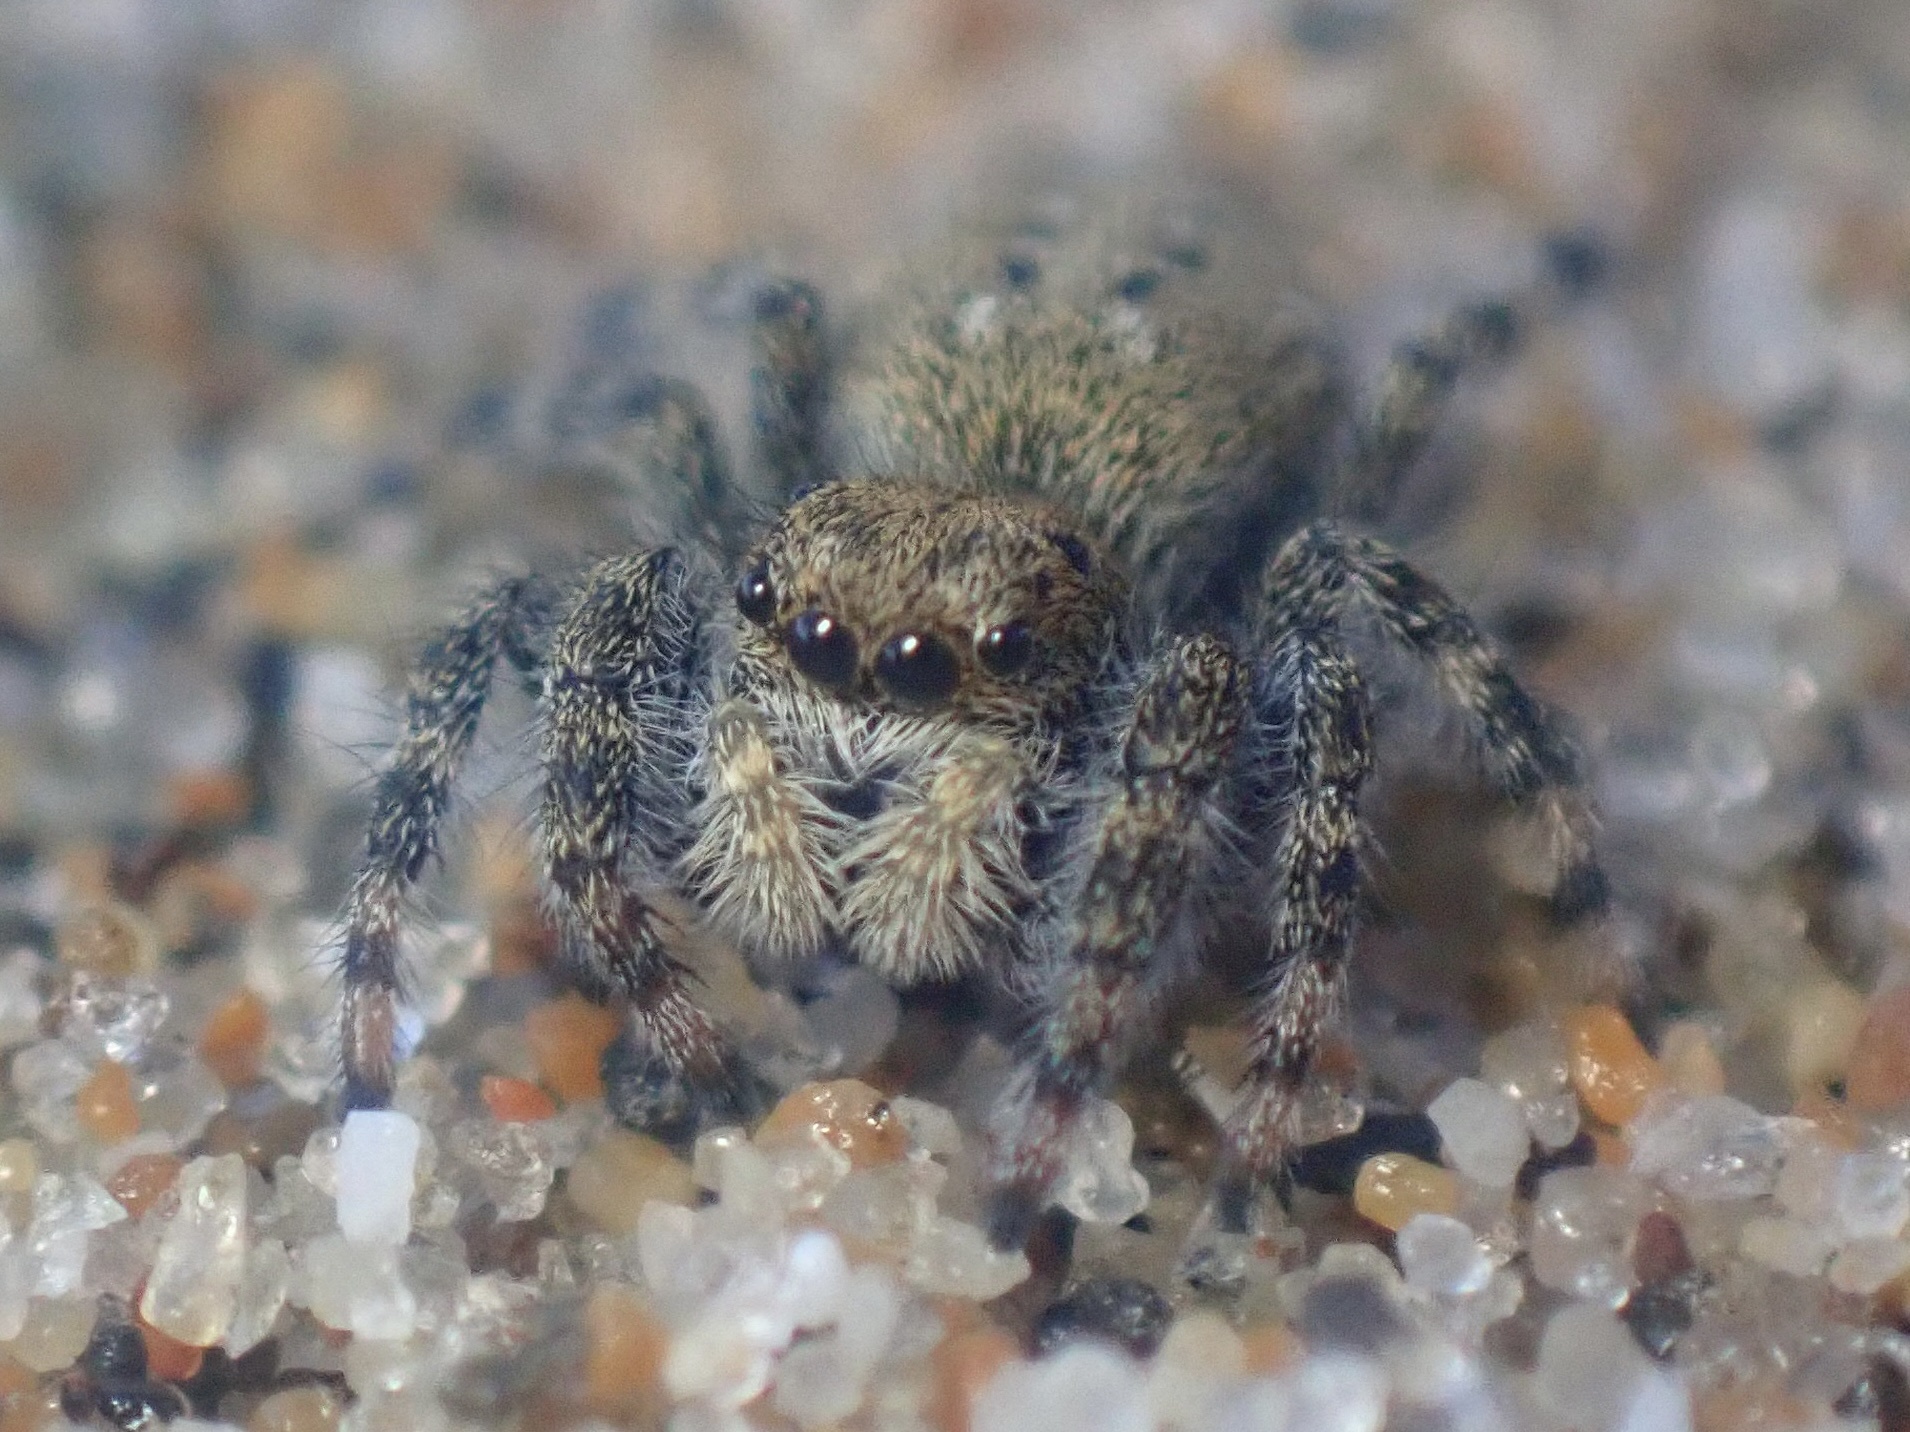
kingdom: Animalia
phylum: Arthropoda
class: Arachnida
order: Araneae
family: Salticidae
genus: Terralonus
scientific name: Terralonus californicus
